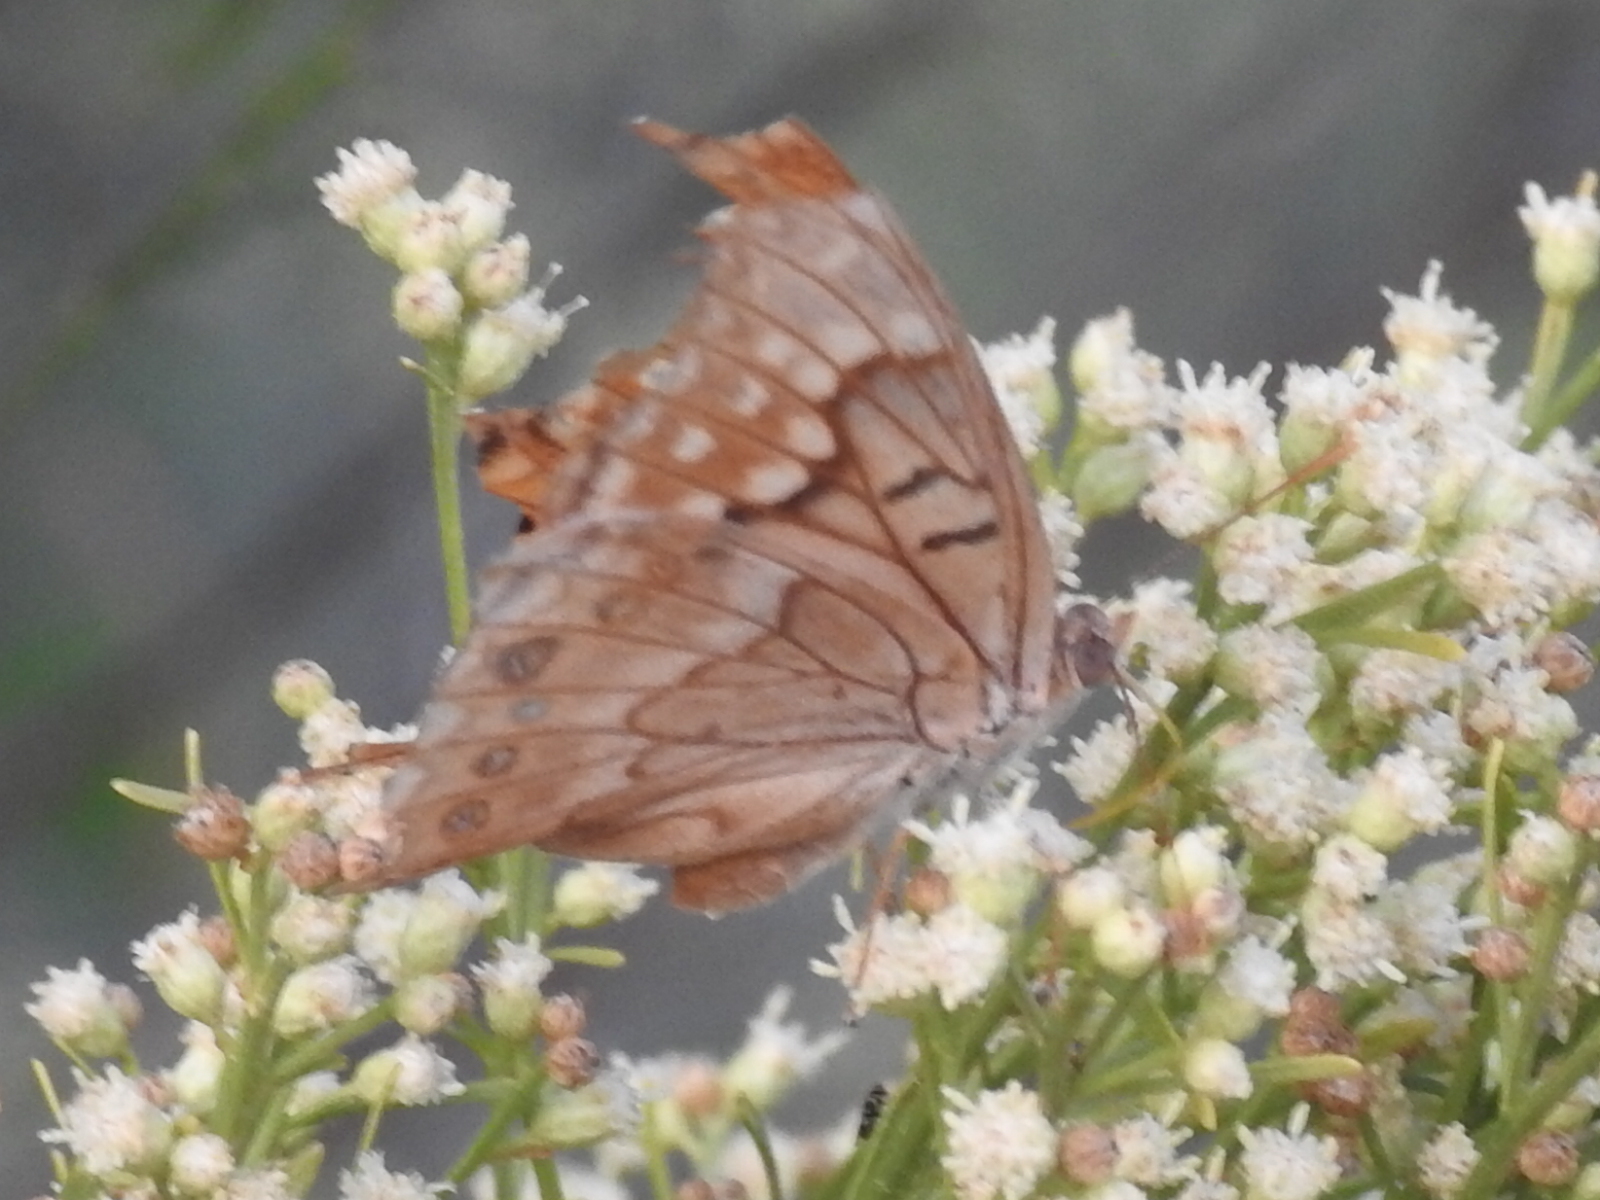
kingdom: Animalia
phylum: Arthropoda
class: Insecta
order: Lepidoptera
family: Nymphalidae
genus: Asterocampa
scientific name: Asterocampa clyton
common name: Tawny emperor
